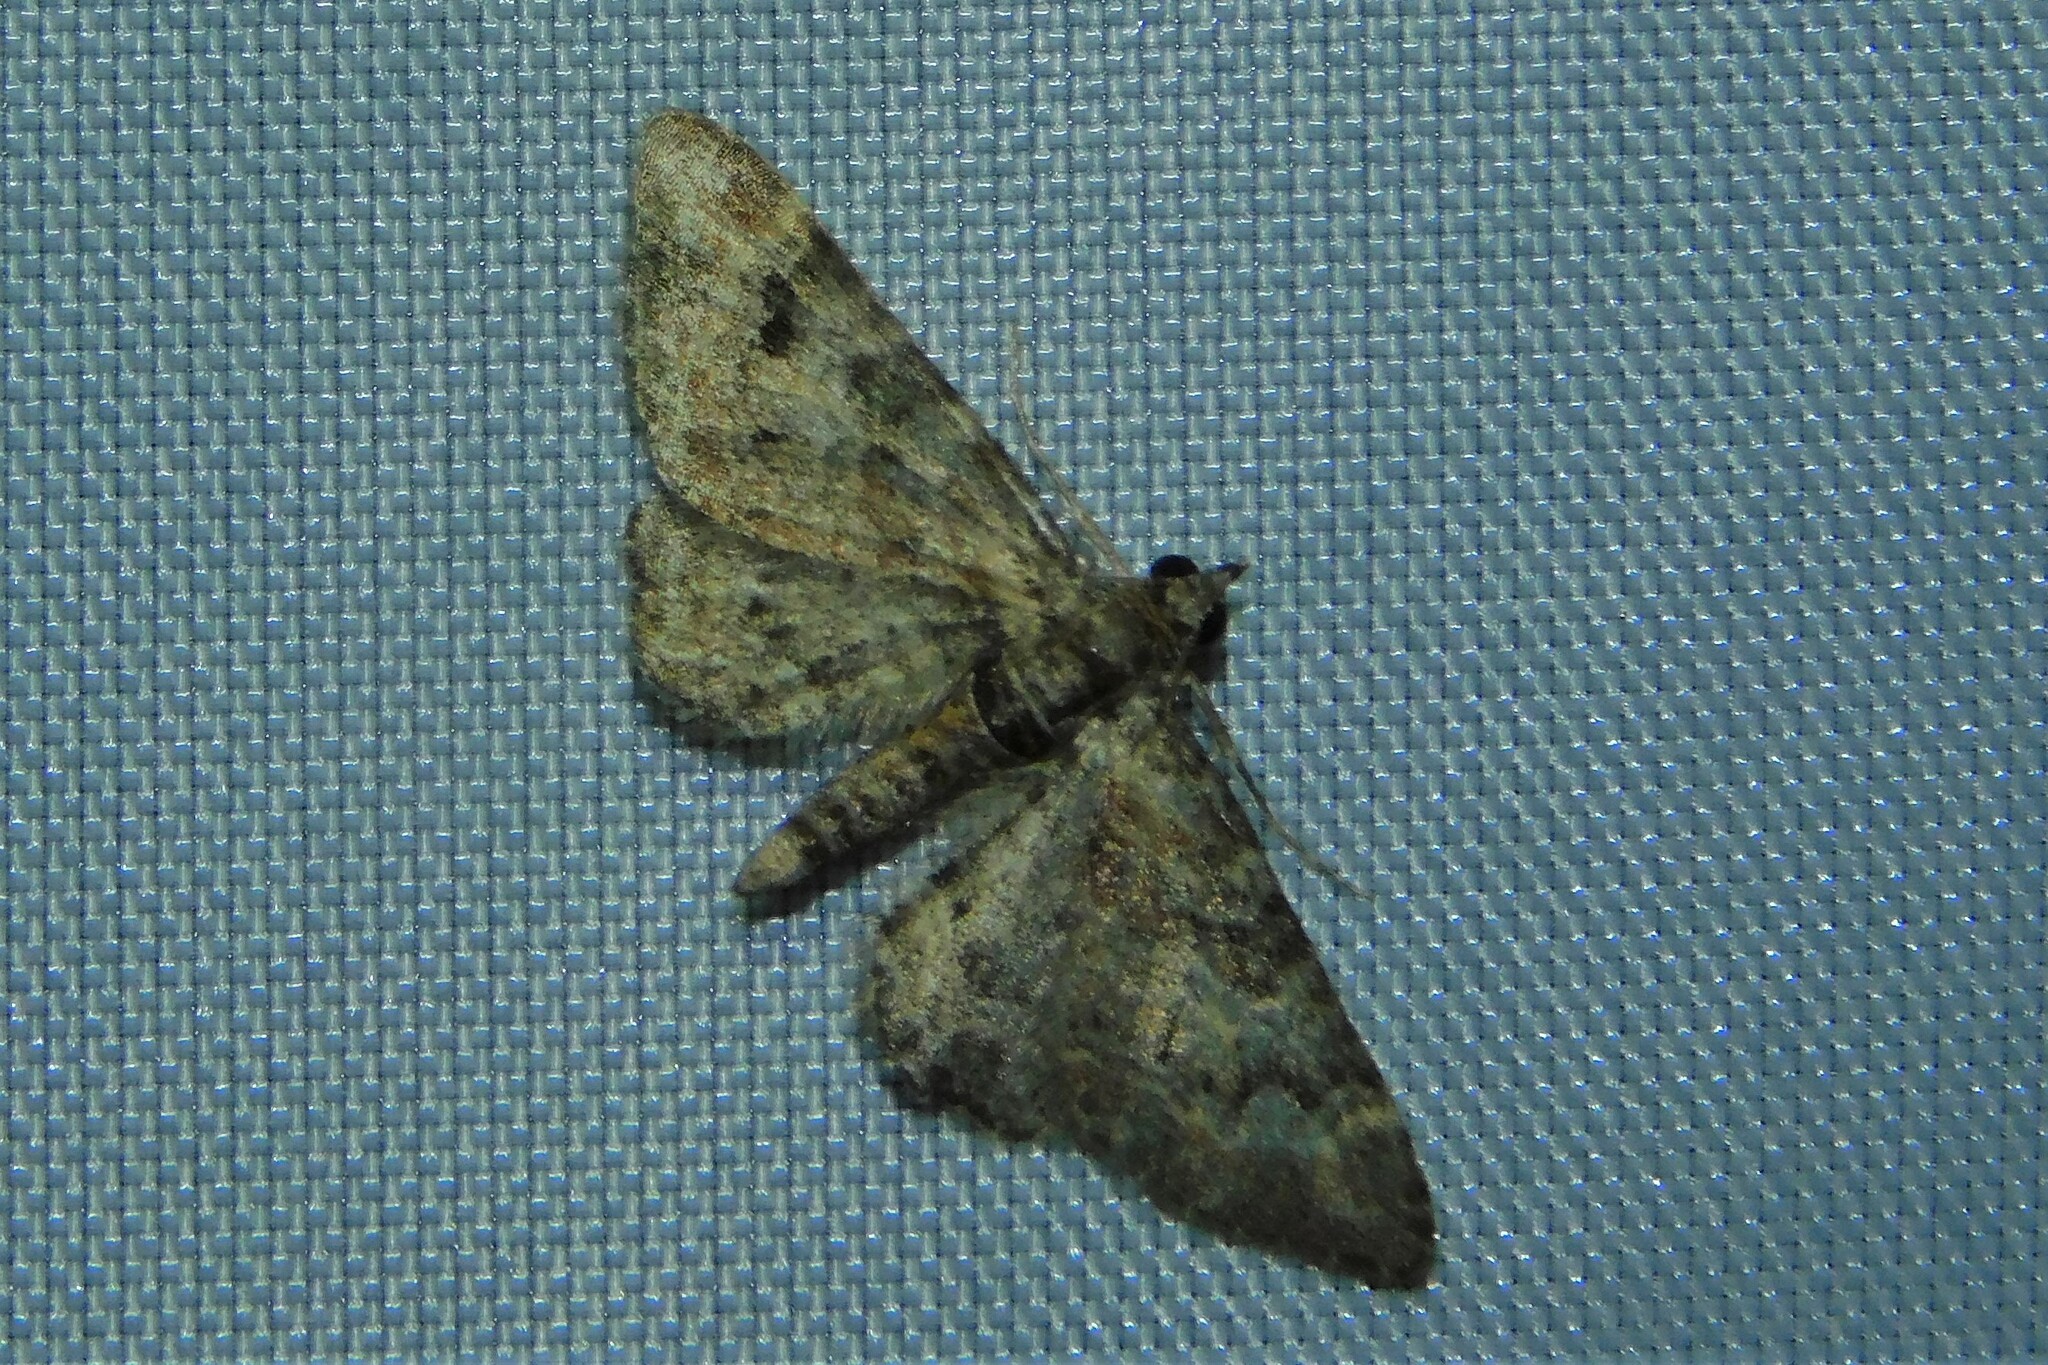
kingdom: Animalia
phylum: Arthropoda
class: Insecta
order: Lepidoptera
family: Geometridae
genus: Gymnoscelis
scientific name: Gymnoscelis rufifasciata
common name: Double-striped pug
